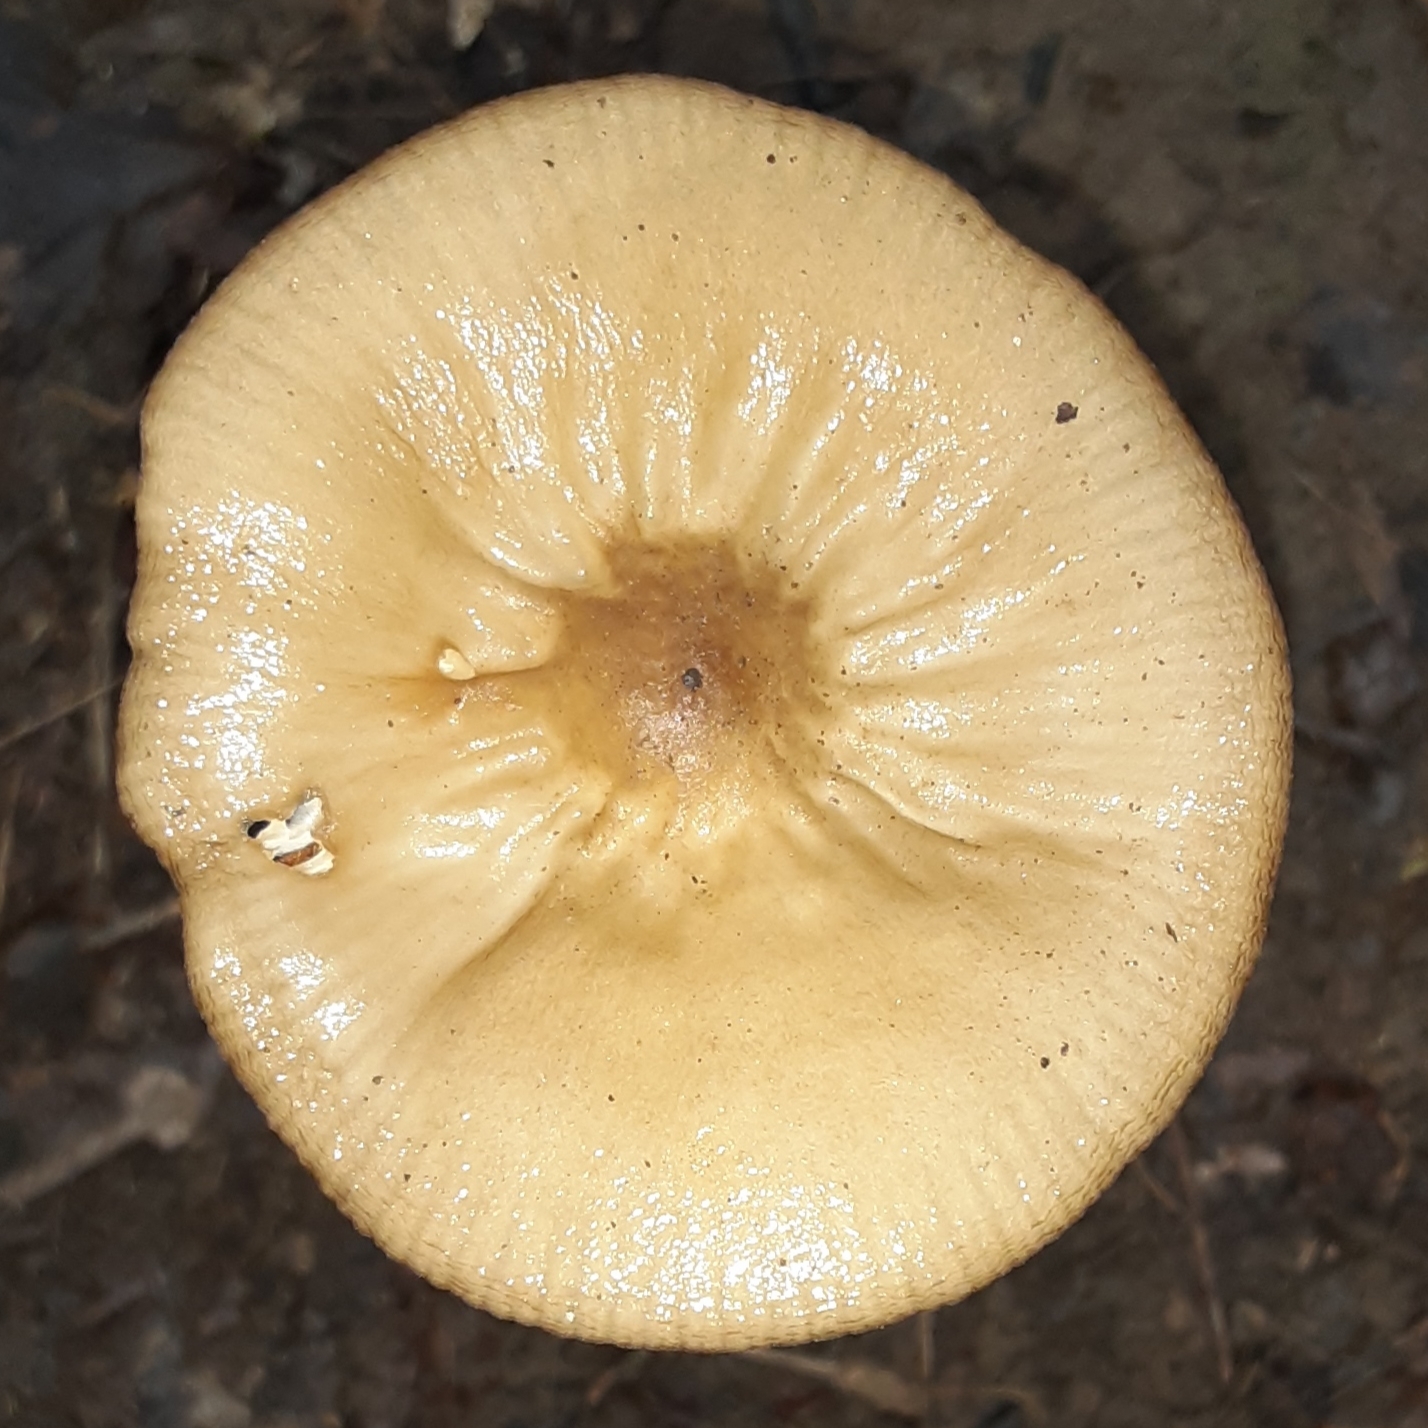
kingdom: Fungi
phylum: Basidiomycota
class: Agaricomycetes
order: Agaricales
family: Physalacriaceae
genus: Hymenopellis
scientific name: Hymenopellis furfuracea
